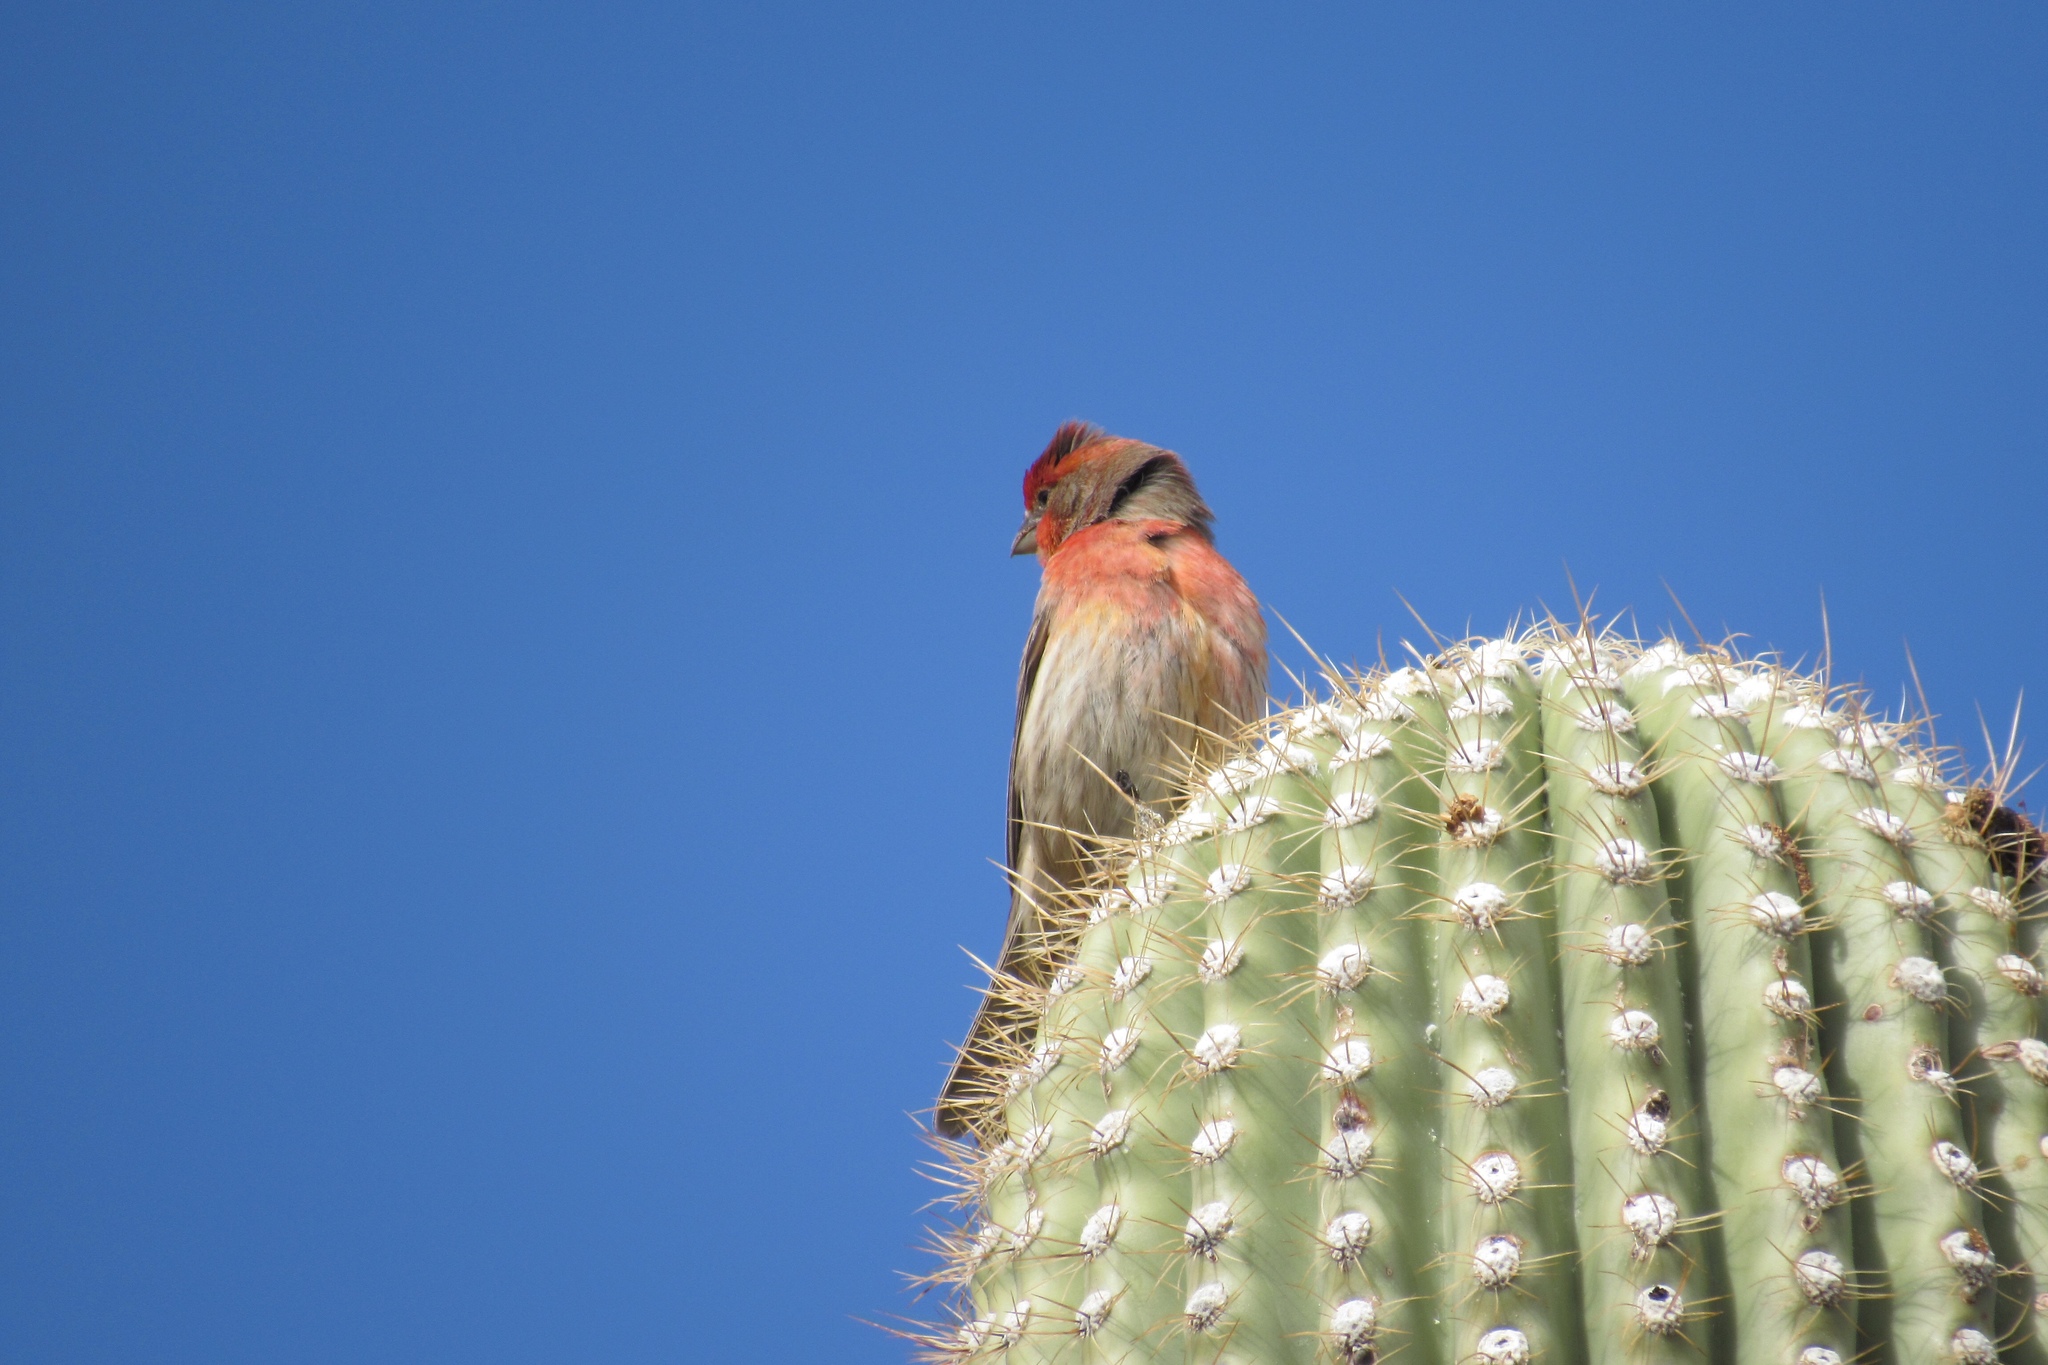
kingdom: Animalia
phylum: Chordata
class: Aves
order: Passeriformes
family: Fringillidae
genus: Haemorhous
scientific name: Haemorhous mexicanus
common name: House finch
